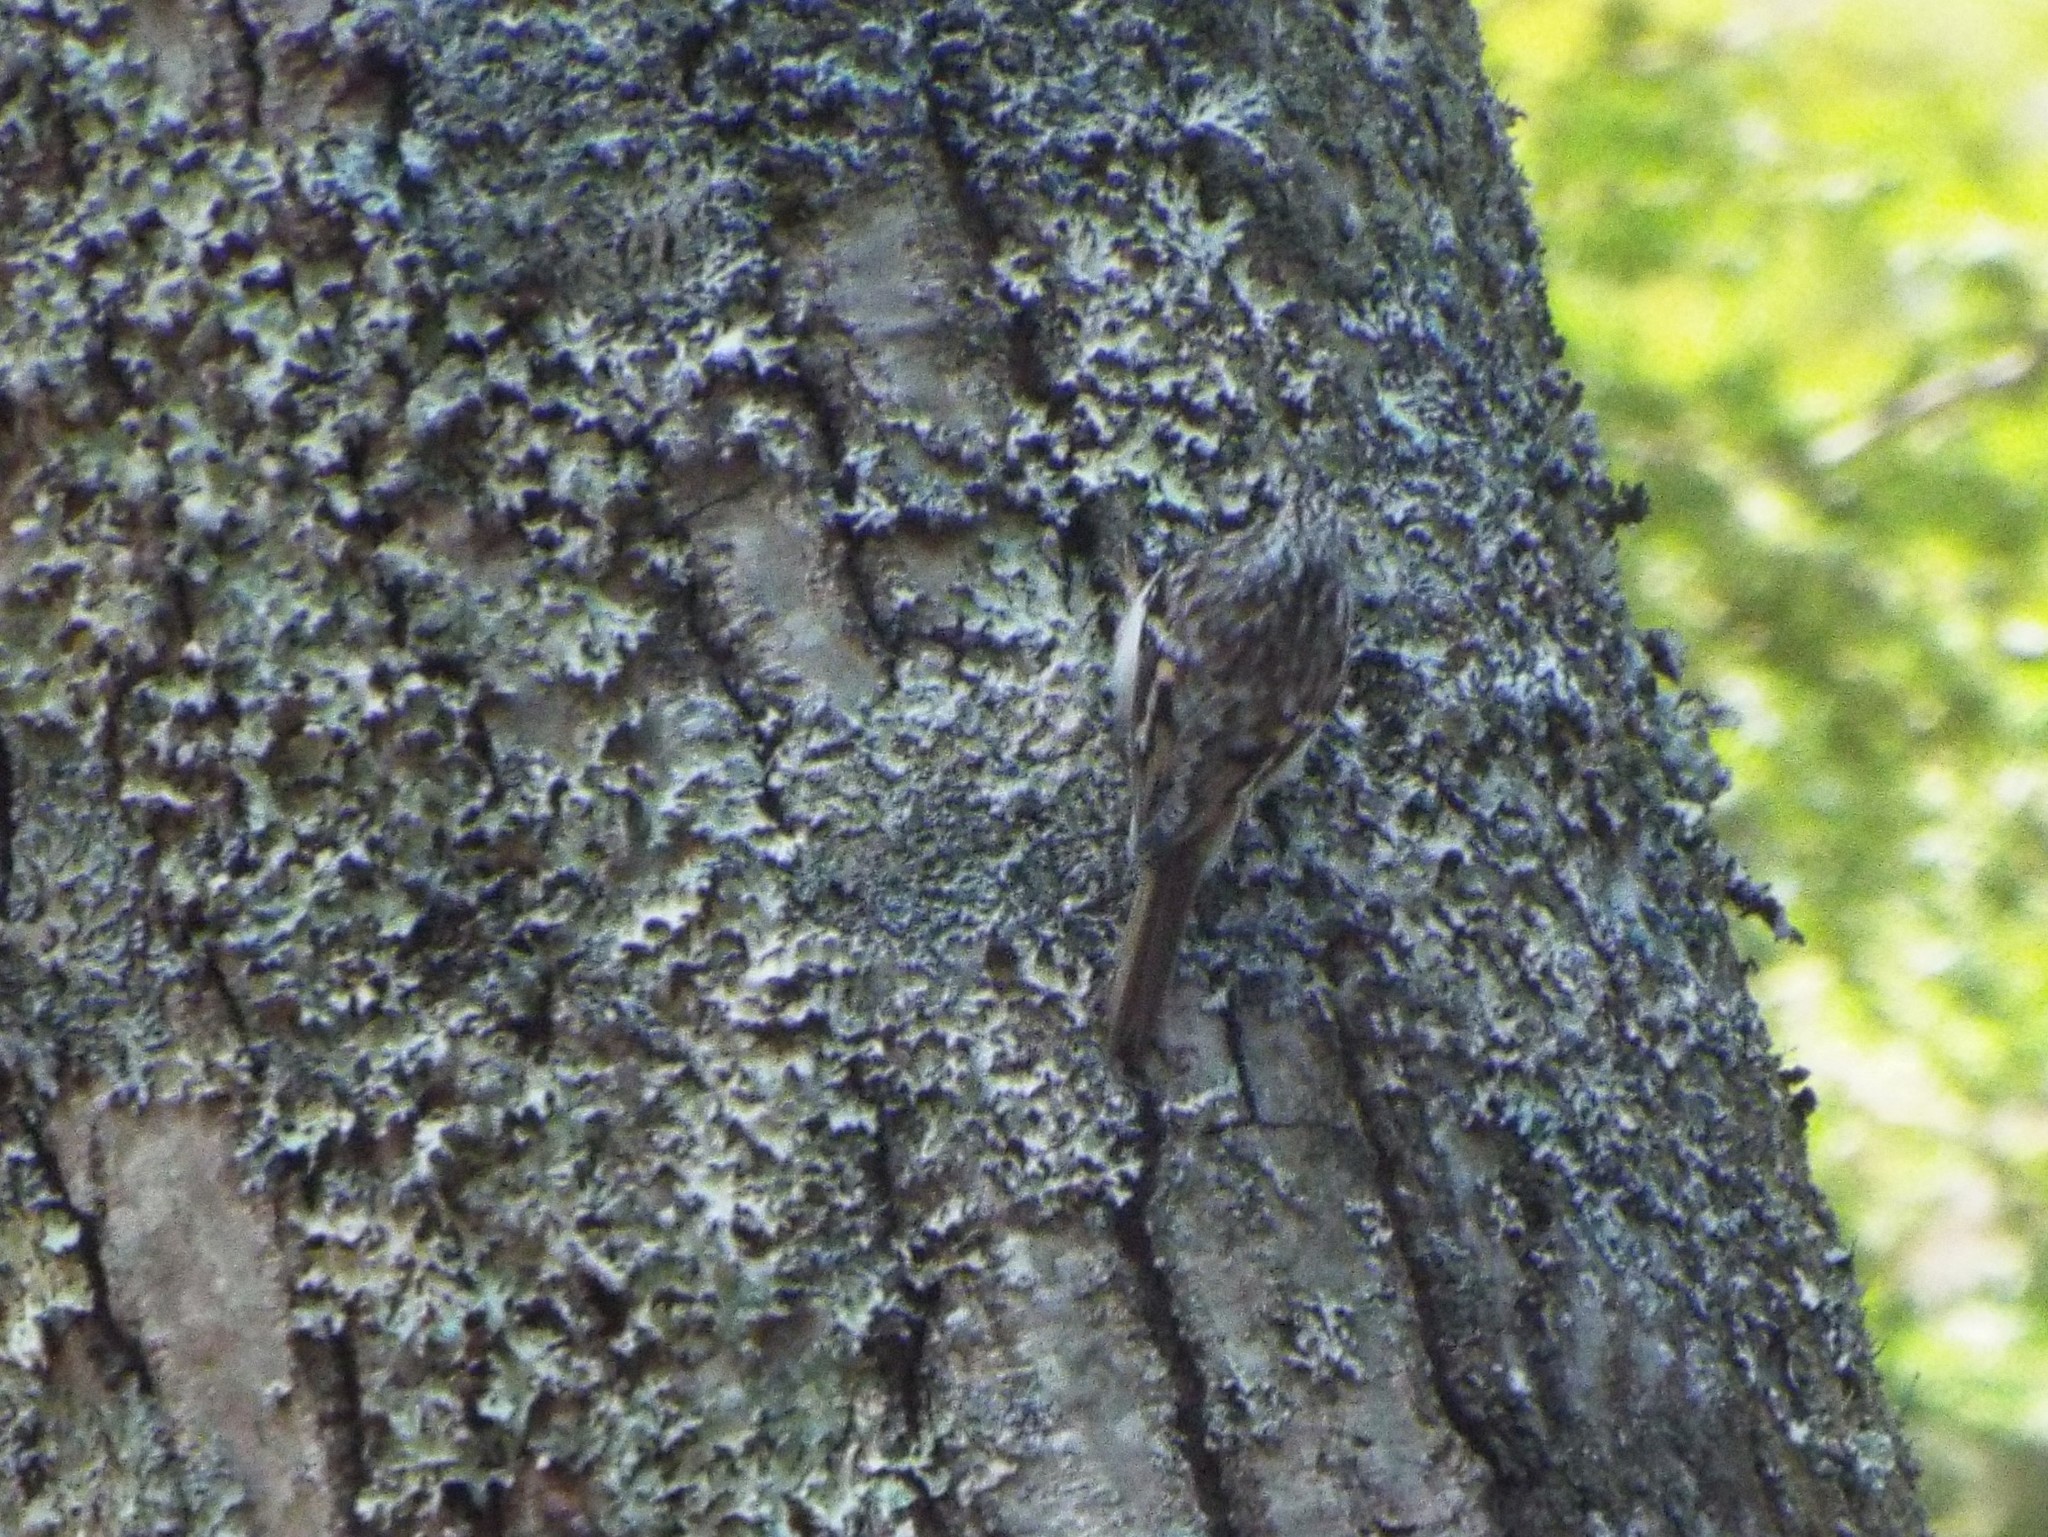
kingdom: Animalia
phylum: Chordata
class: Aves
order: Passeriformes
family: Certhiidae
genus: Certhia
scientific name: Certhia americana
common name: Brown creeper
